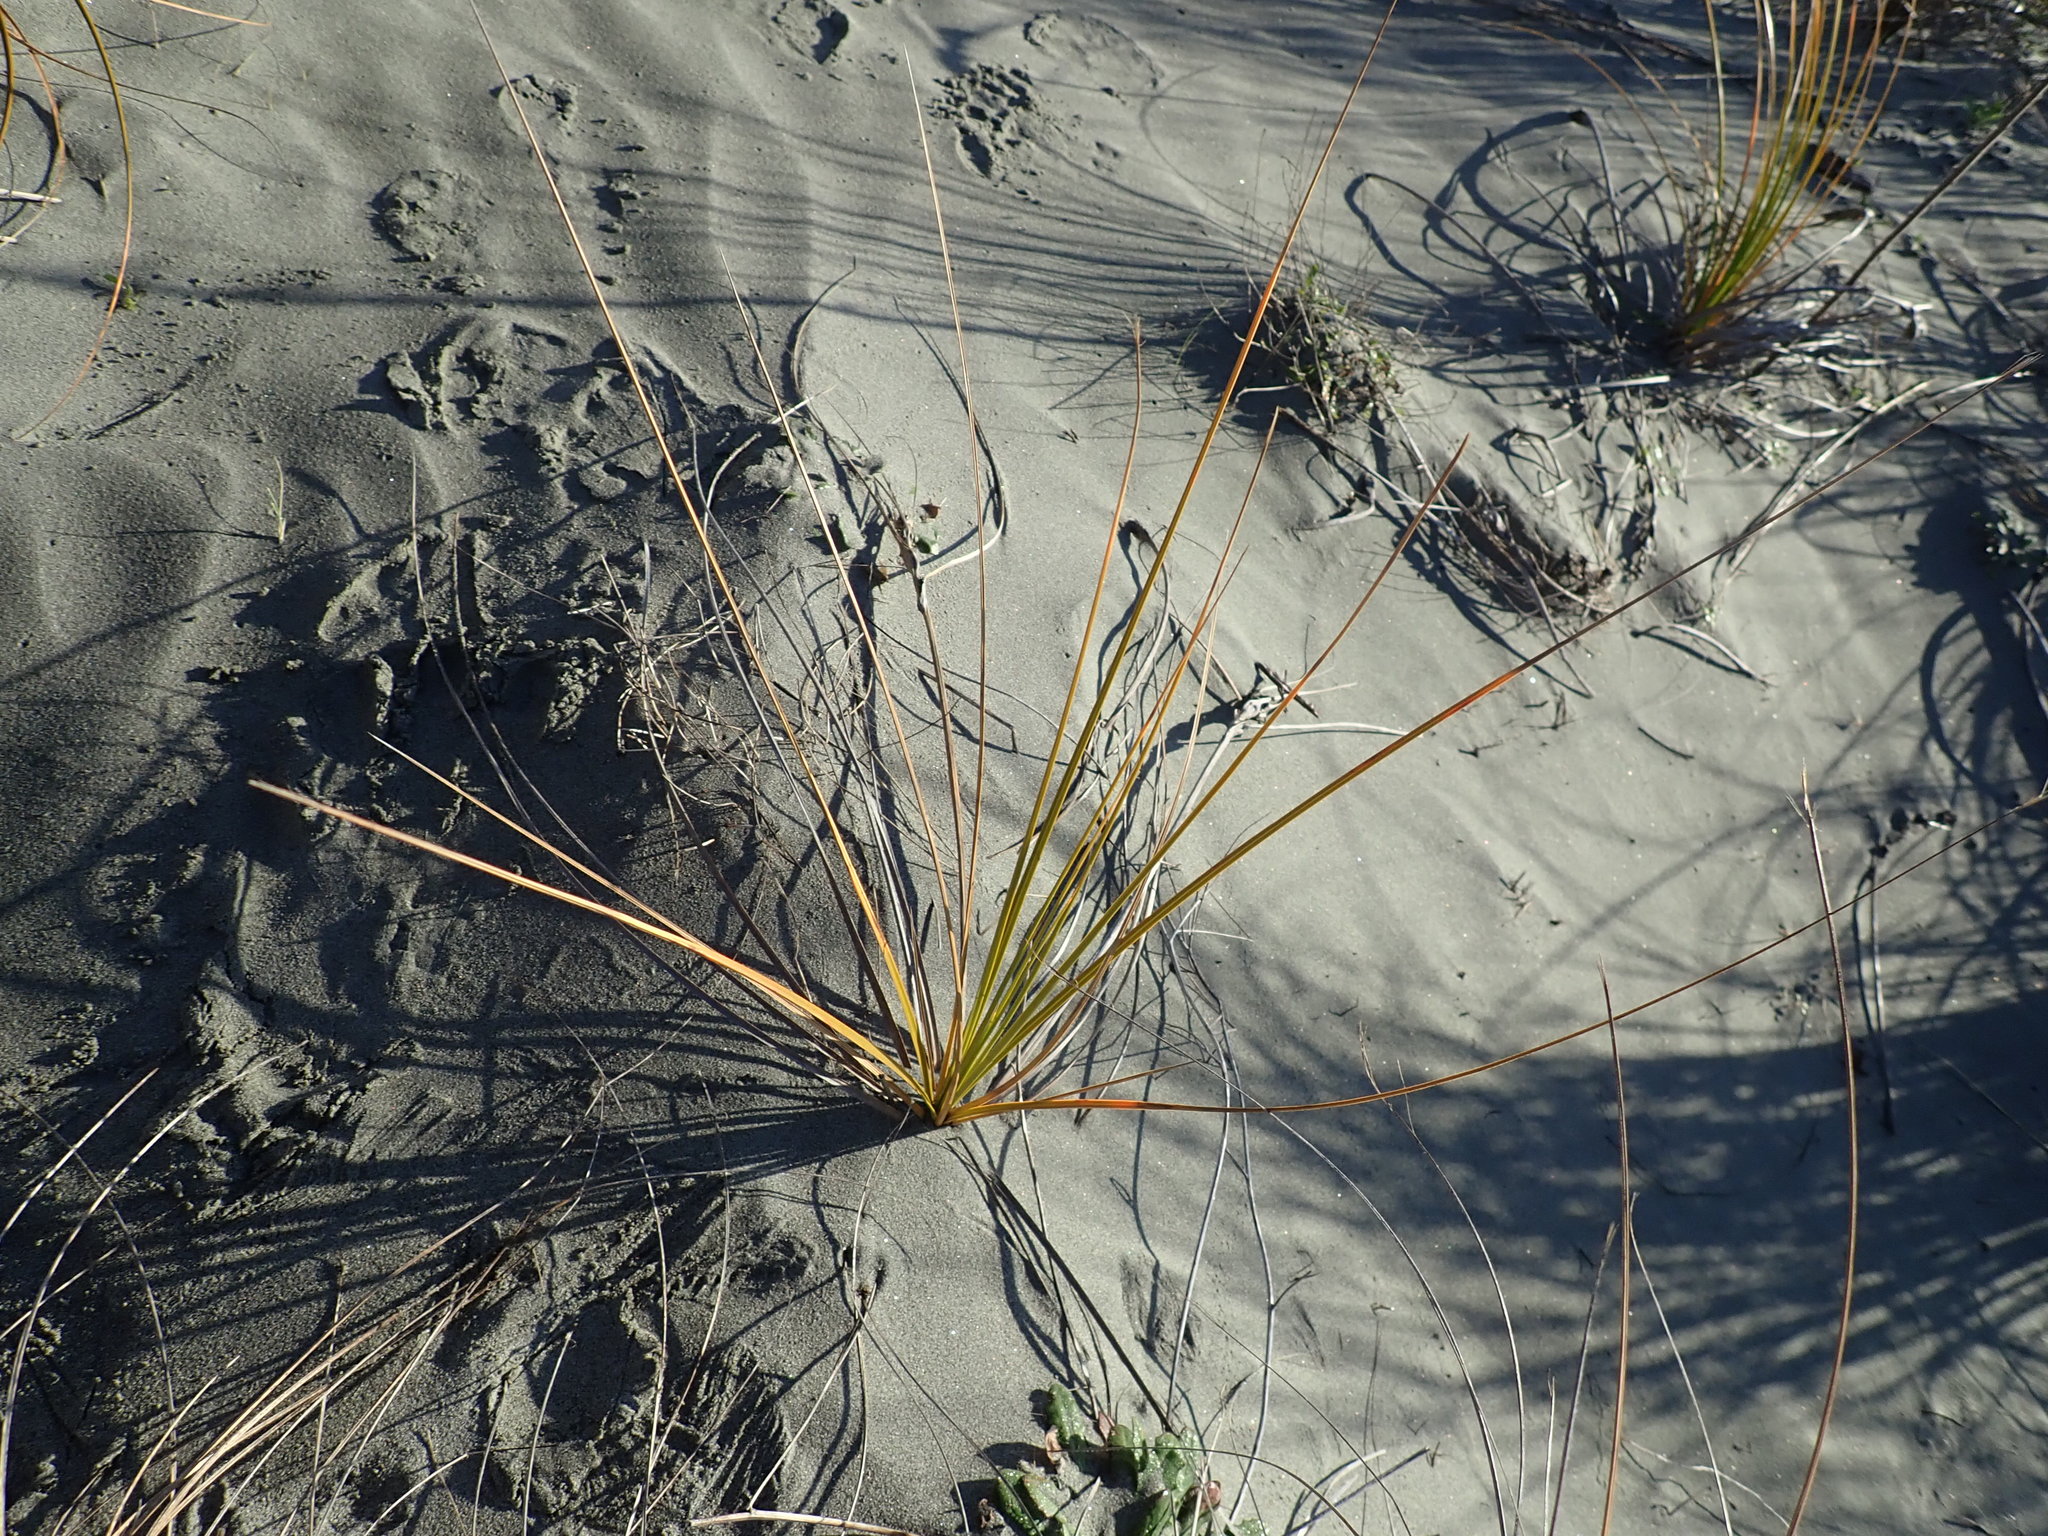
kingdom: Plantae
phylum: Tracheophyta
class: Liliopsida
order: Poales
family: Cyperaceae
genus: Ficinia
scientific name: Ficinia spiralis
